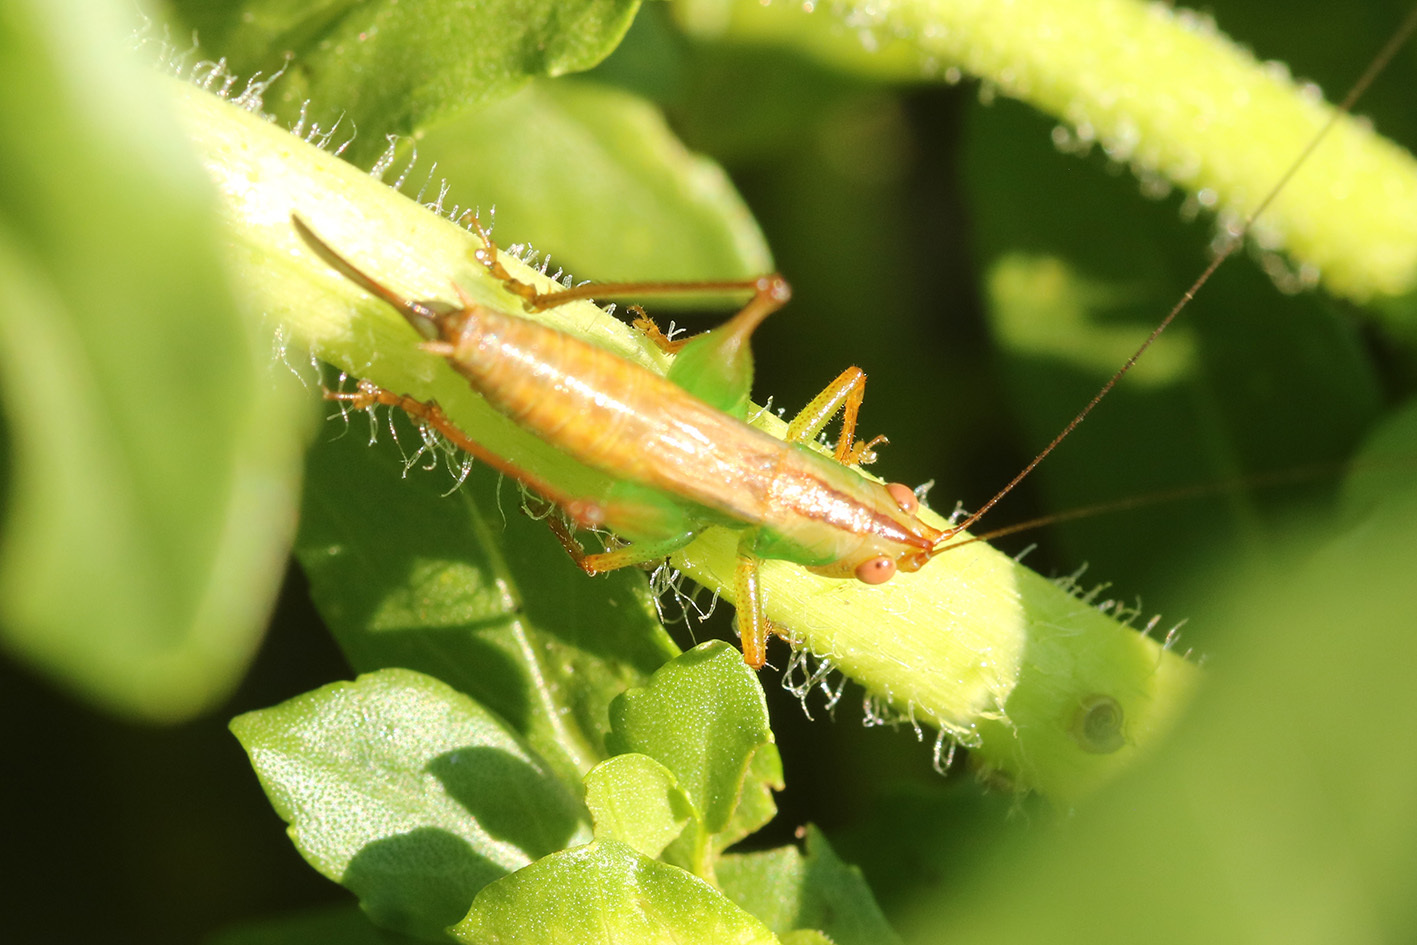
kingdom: Animalia
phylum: Arthropoda
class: Insecta
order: Orthoptera
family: Tettigoniidae
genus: Conocephalus
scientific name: Conocephalus cinnamonifrons
